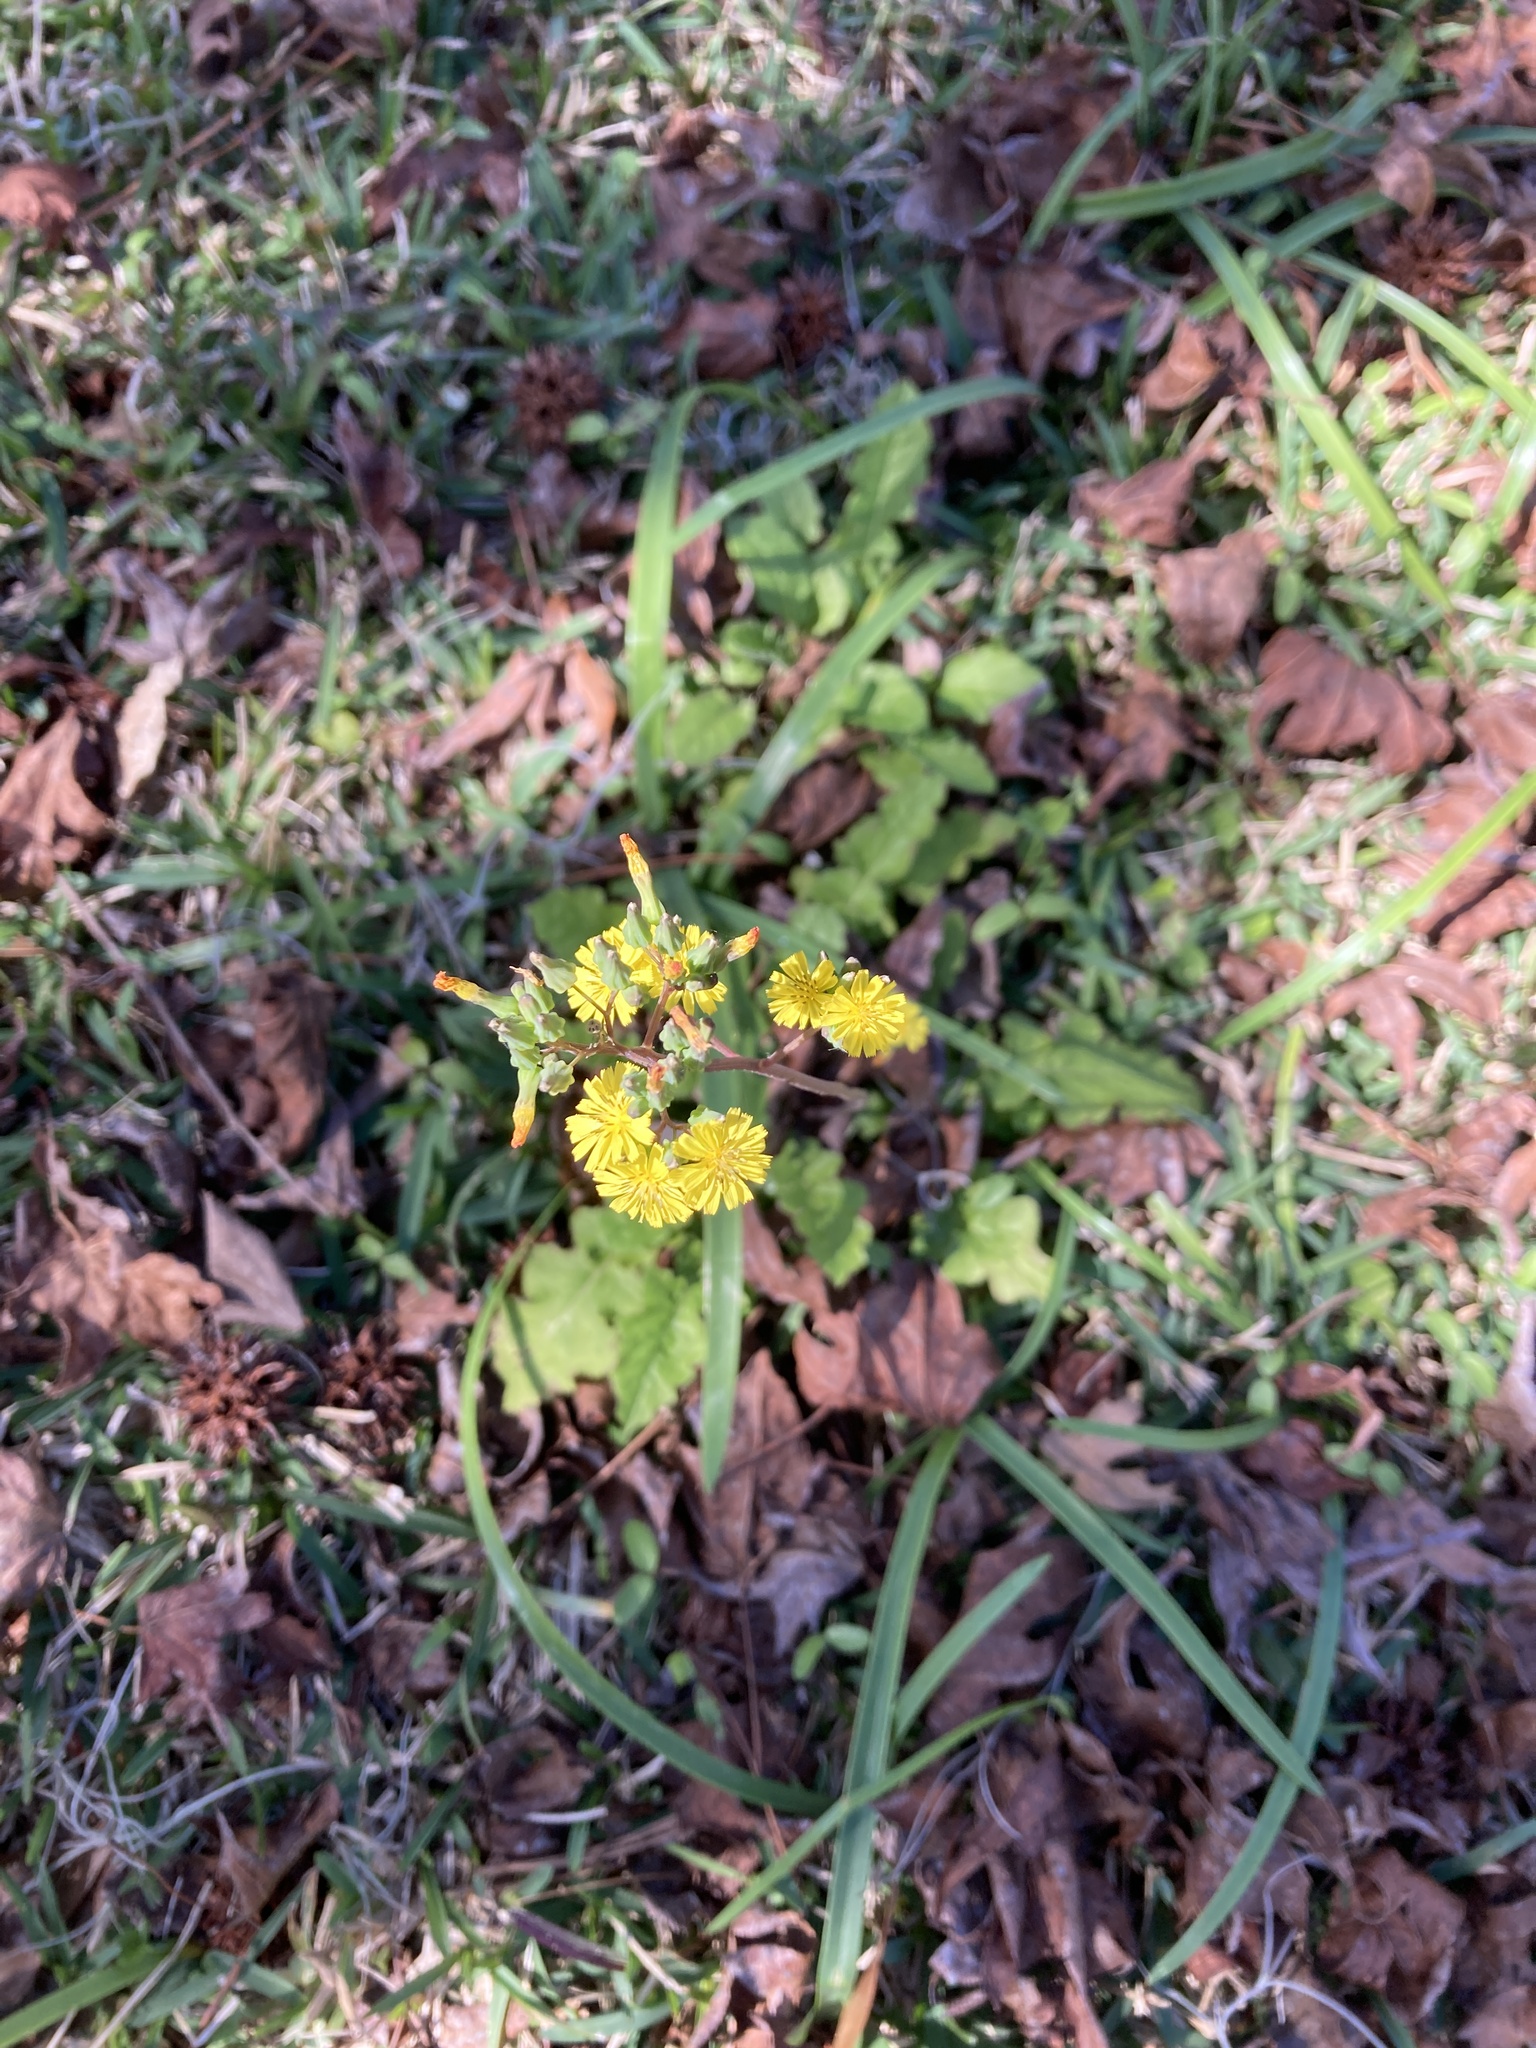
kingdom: Plantae
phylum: Tracheophyta
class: Magnoliopsida
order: Asterales
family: Asteraceae
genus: Youngia
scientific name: Youngia japonica
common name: Oriental false hawksbeard
